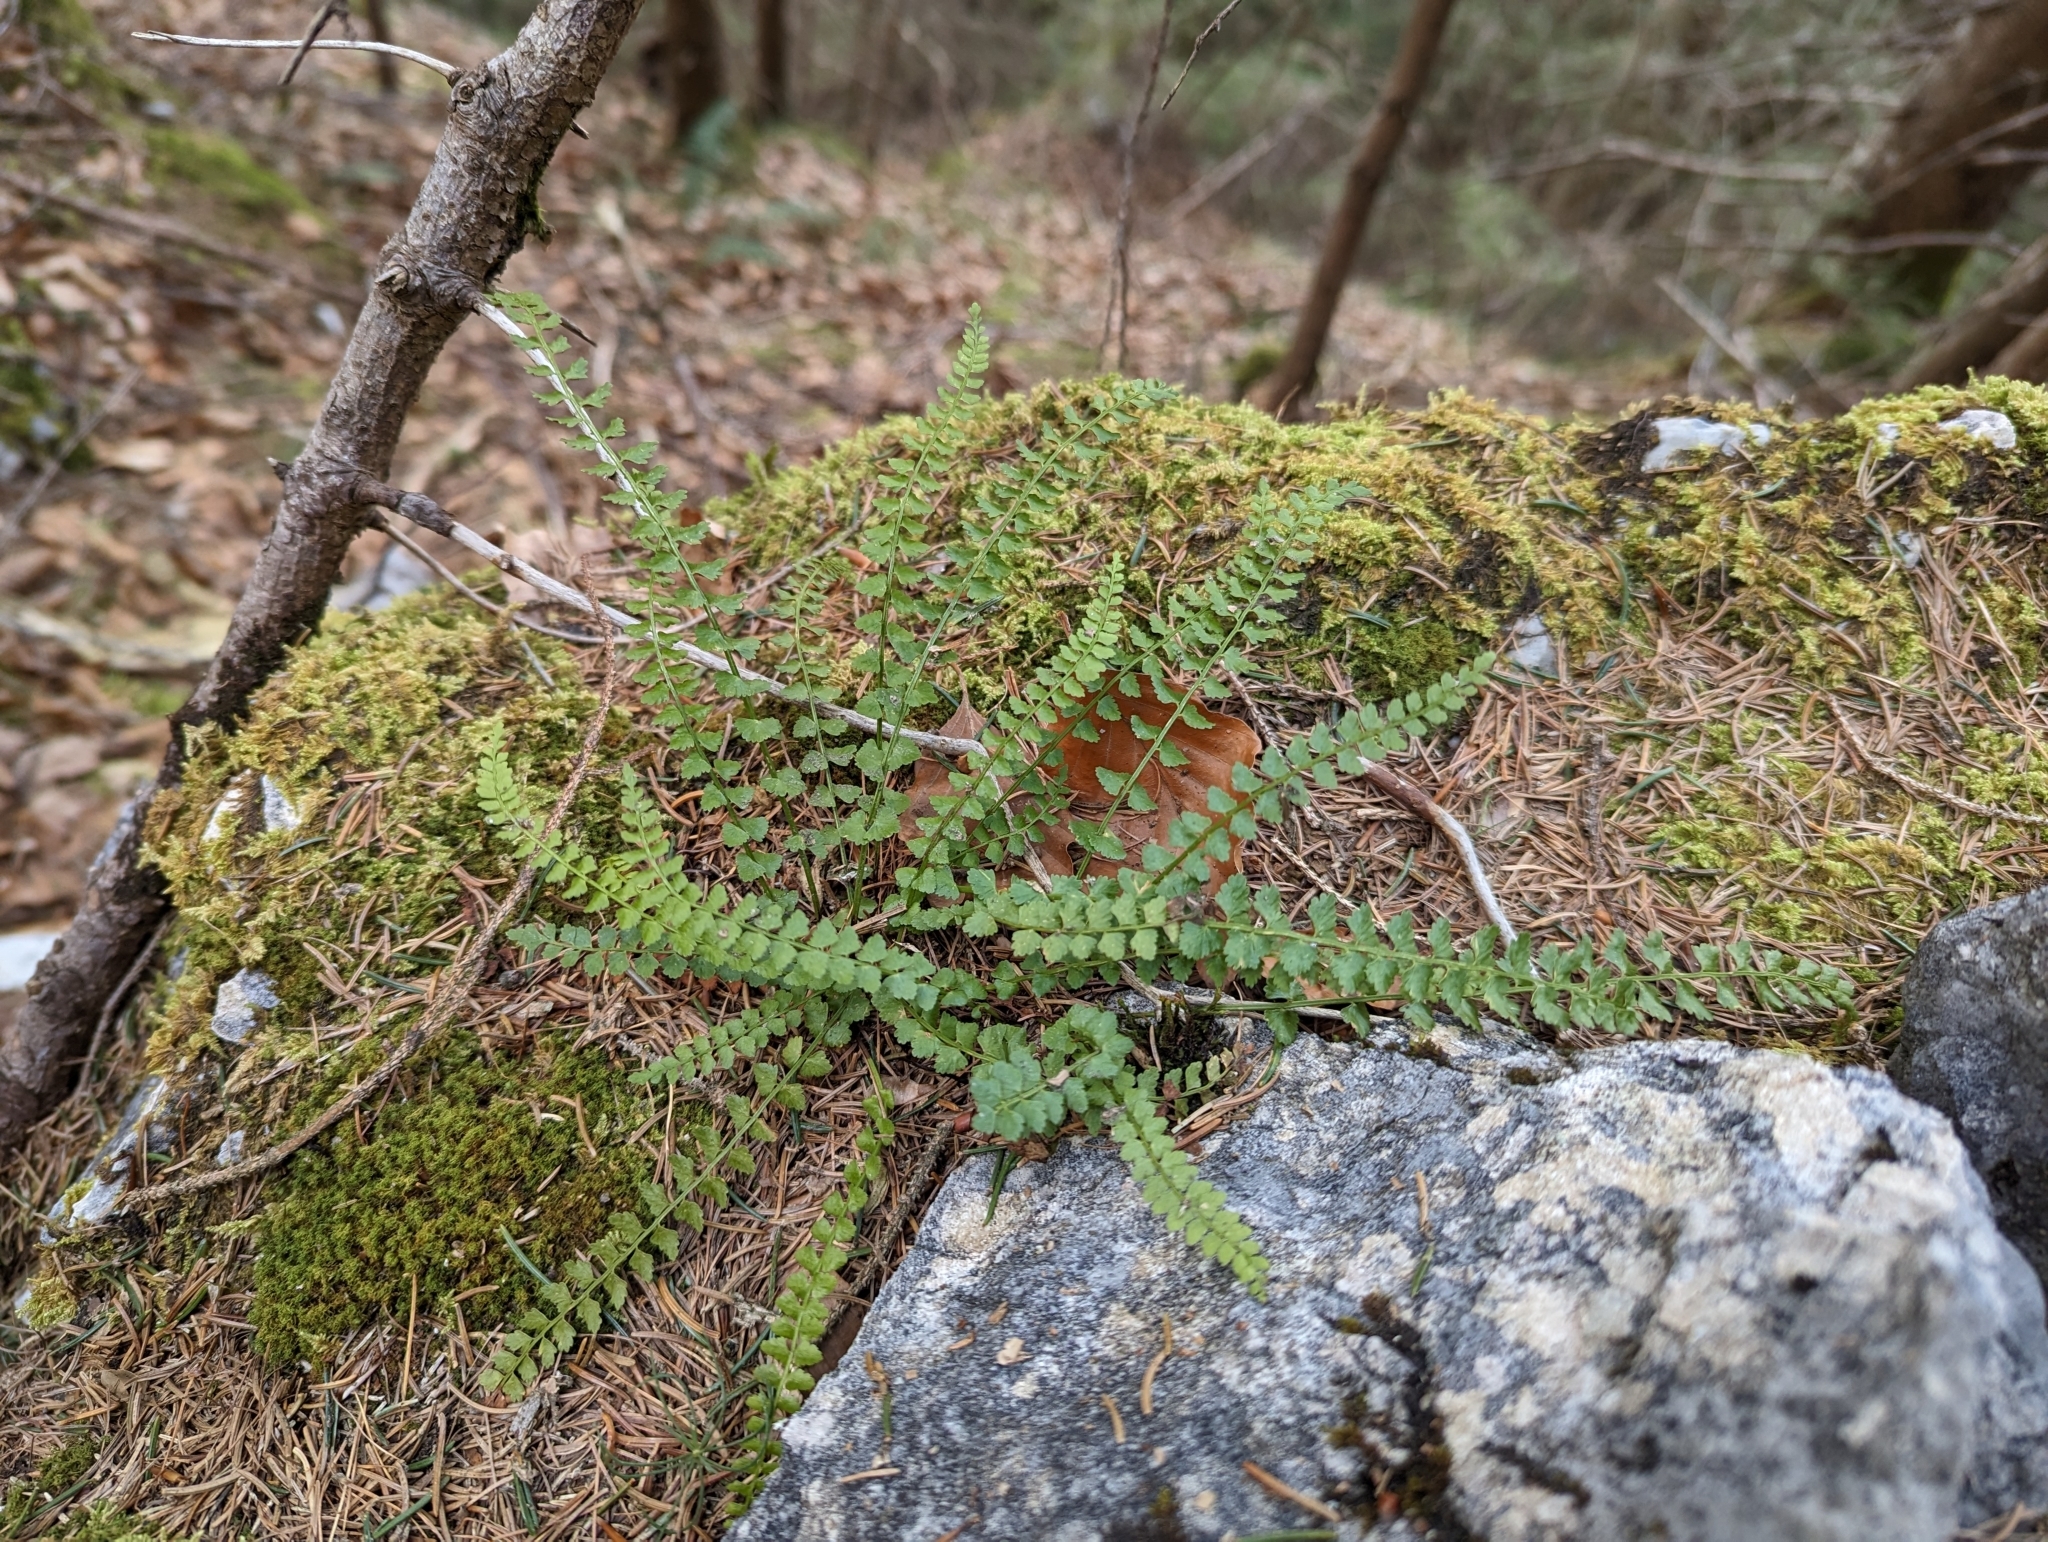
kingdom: Plantae
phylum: Tracheophyta
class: Polypodiopsida
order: Polypodiales
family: Aspleniaceae
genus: Asplenium
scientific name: Asplenium viride
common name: Green spleenwort
